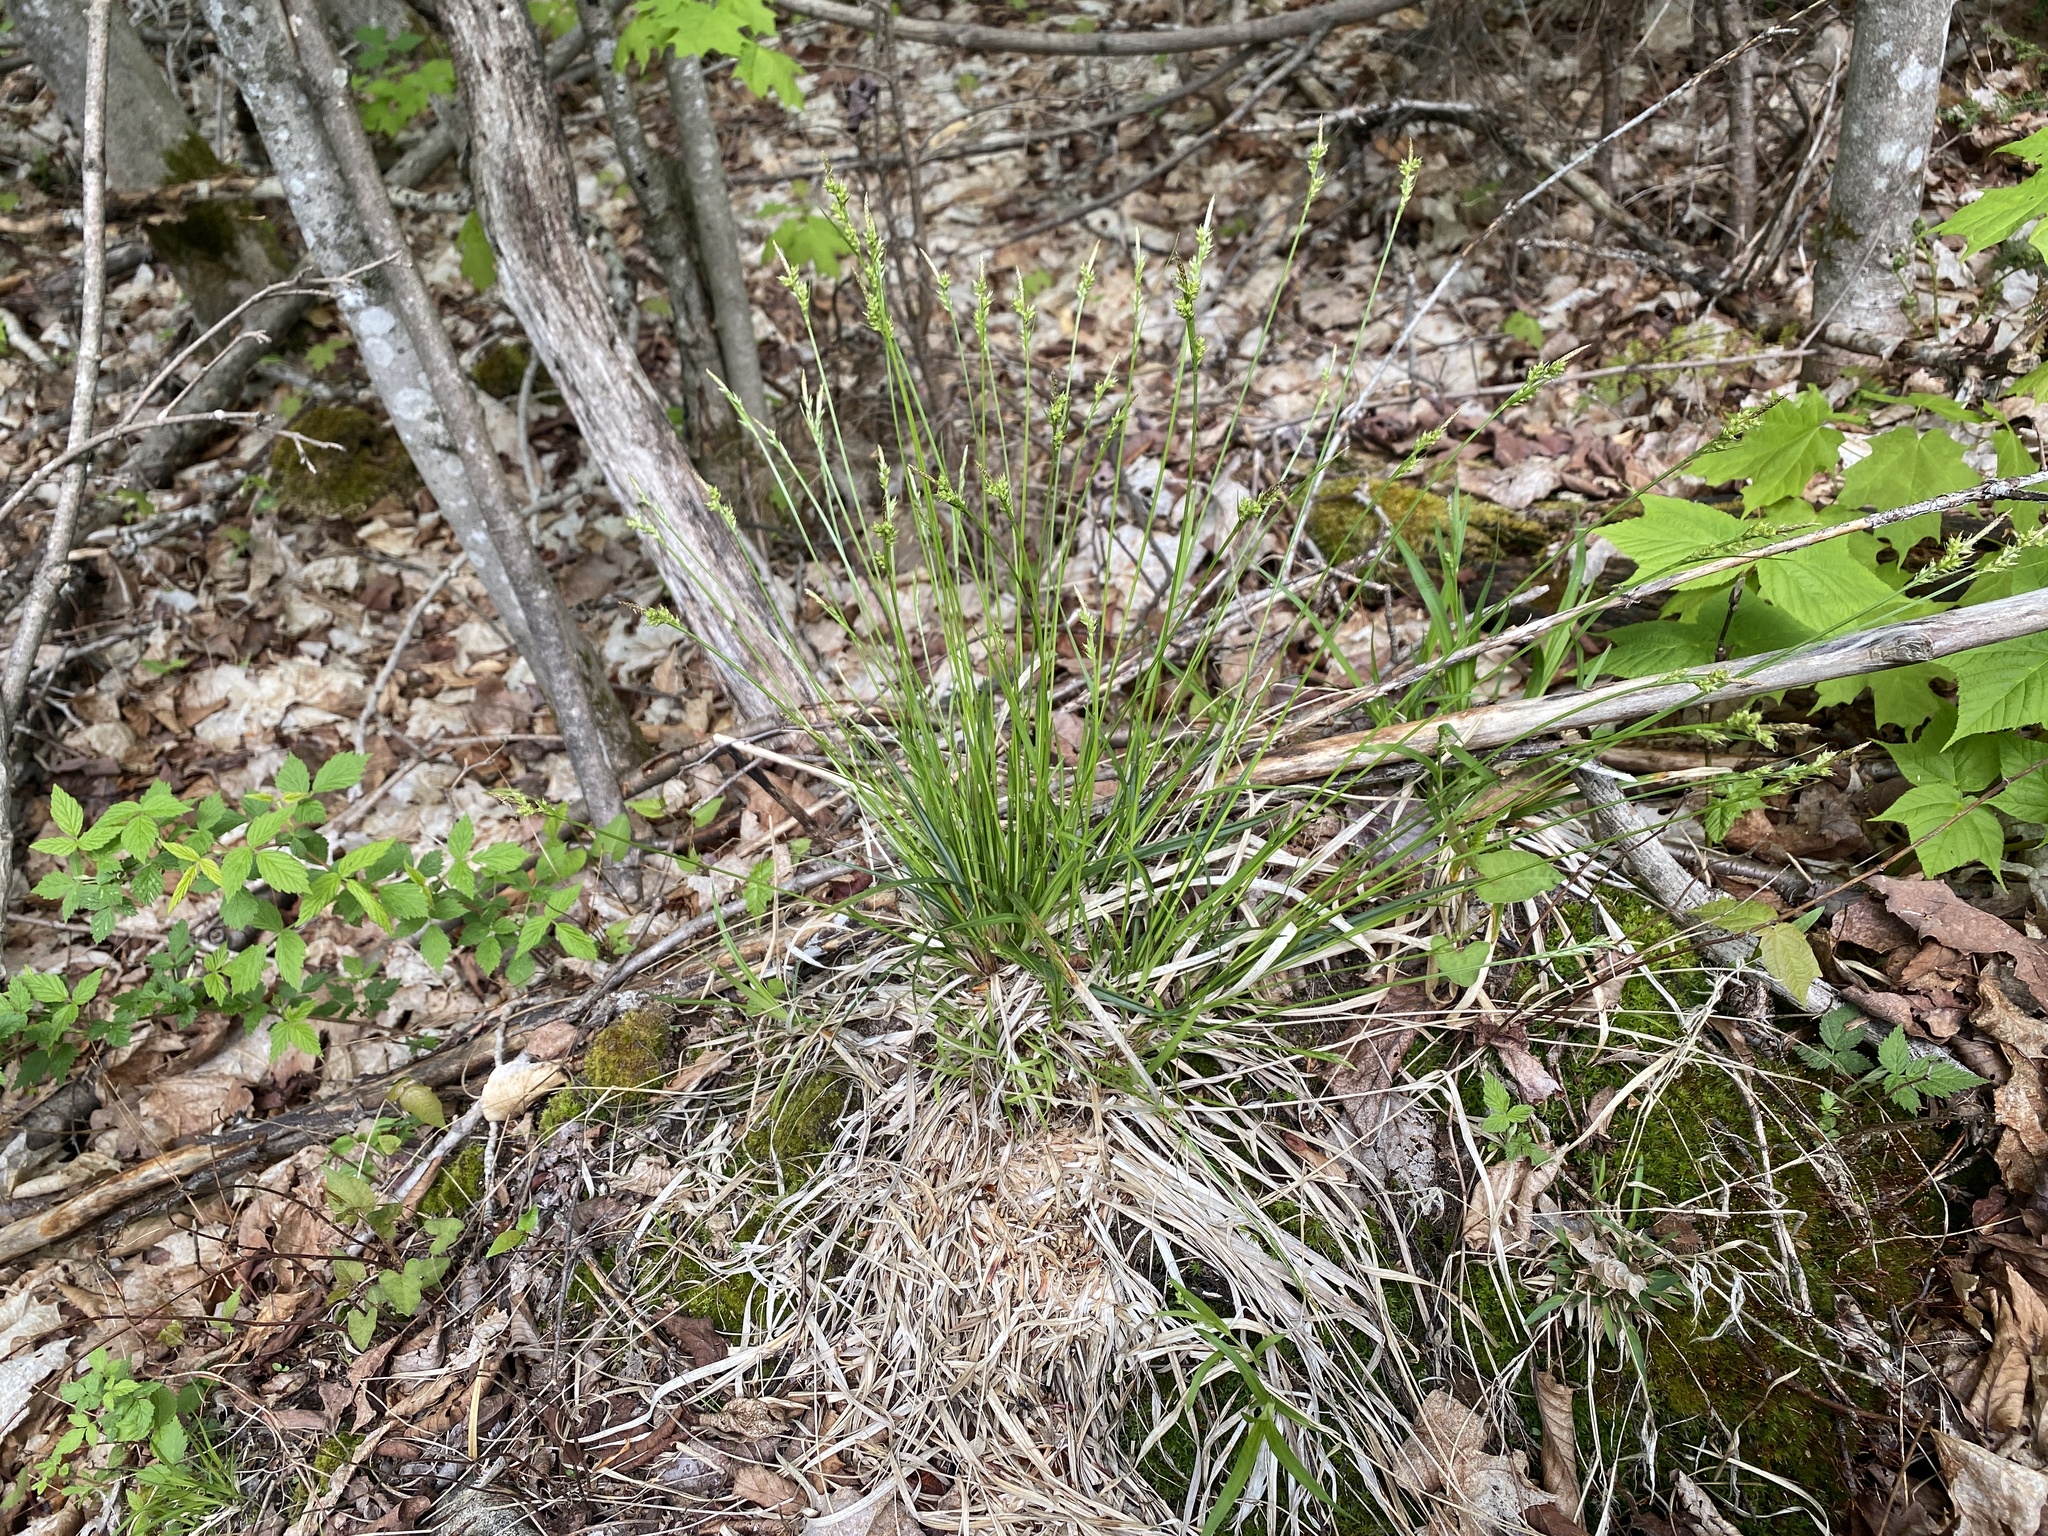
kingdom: Plantae
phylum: Tracheophyta
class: Liliopsida
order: Poales
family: Cyperaceae
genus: Carex
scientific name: Carex communis
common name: Colonial oak sedge
